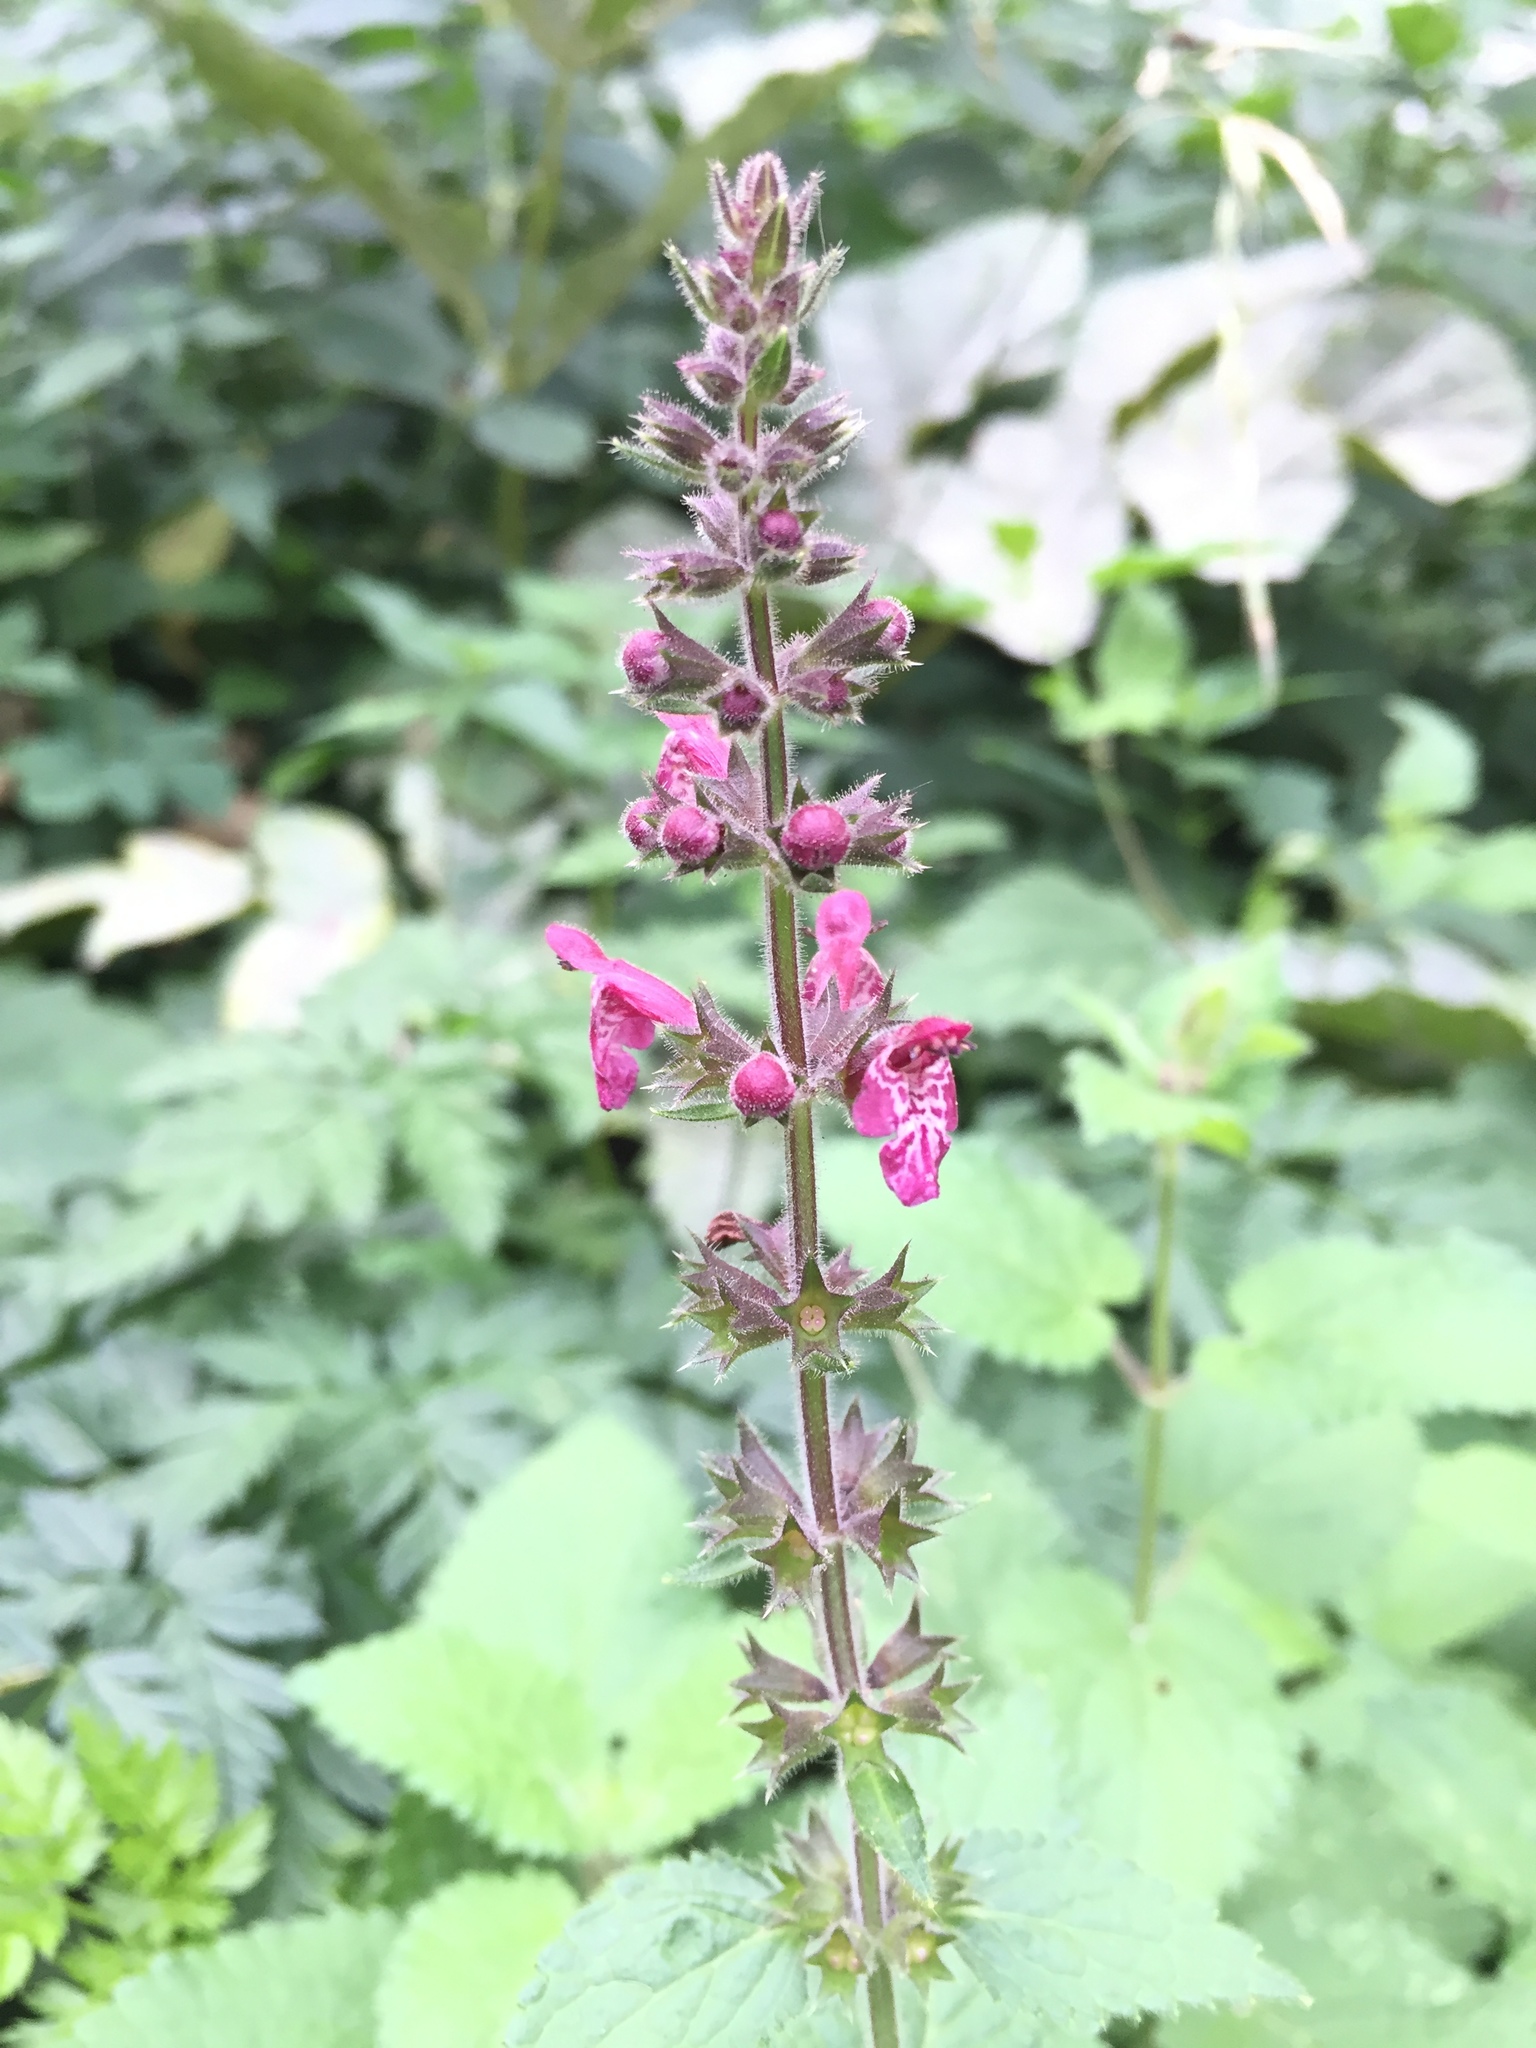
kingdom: Plantae
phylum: Tracheophyta
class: Magnoliopsida
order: Lamiales
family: Lamiaceae
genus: Stachys
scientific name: Stachys sylvatica
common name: Hedge woundwort
